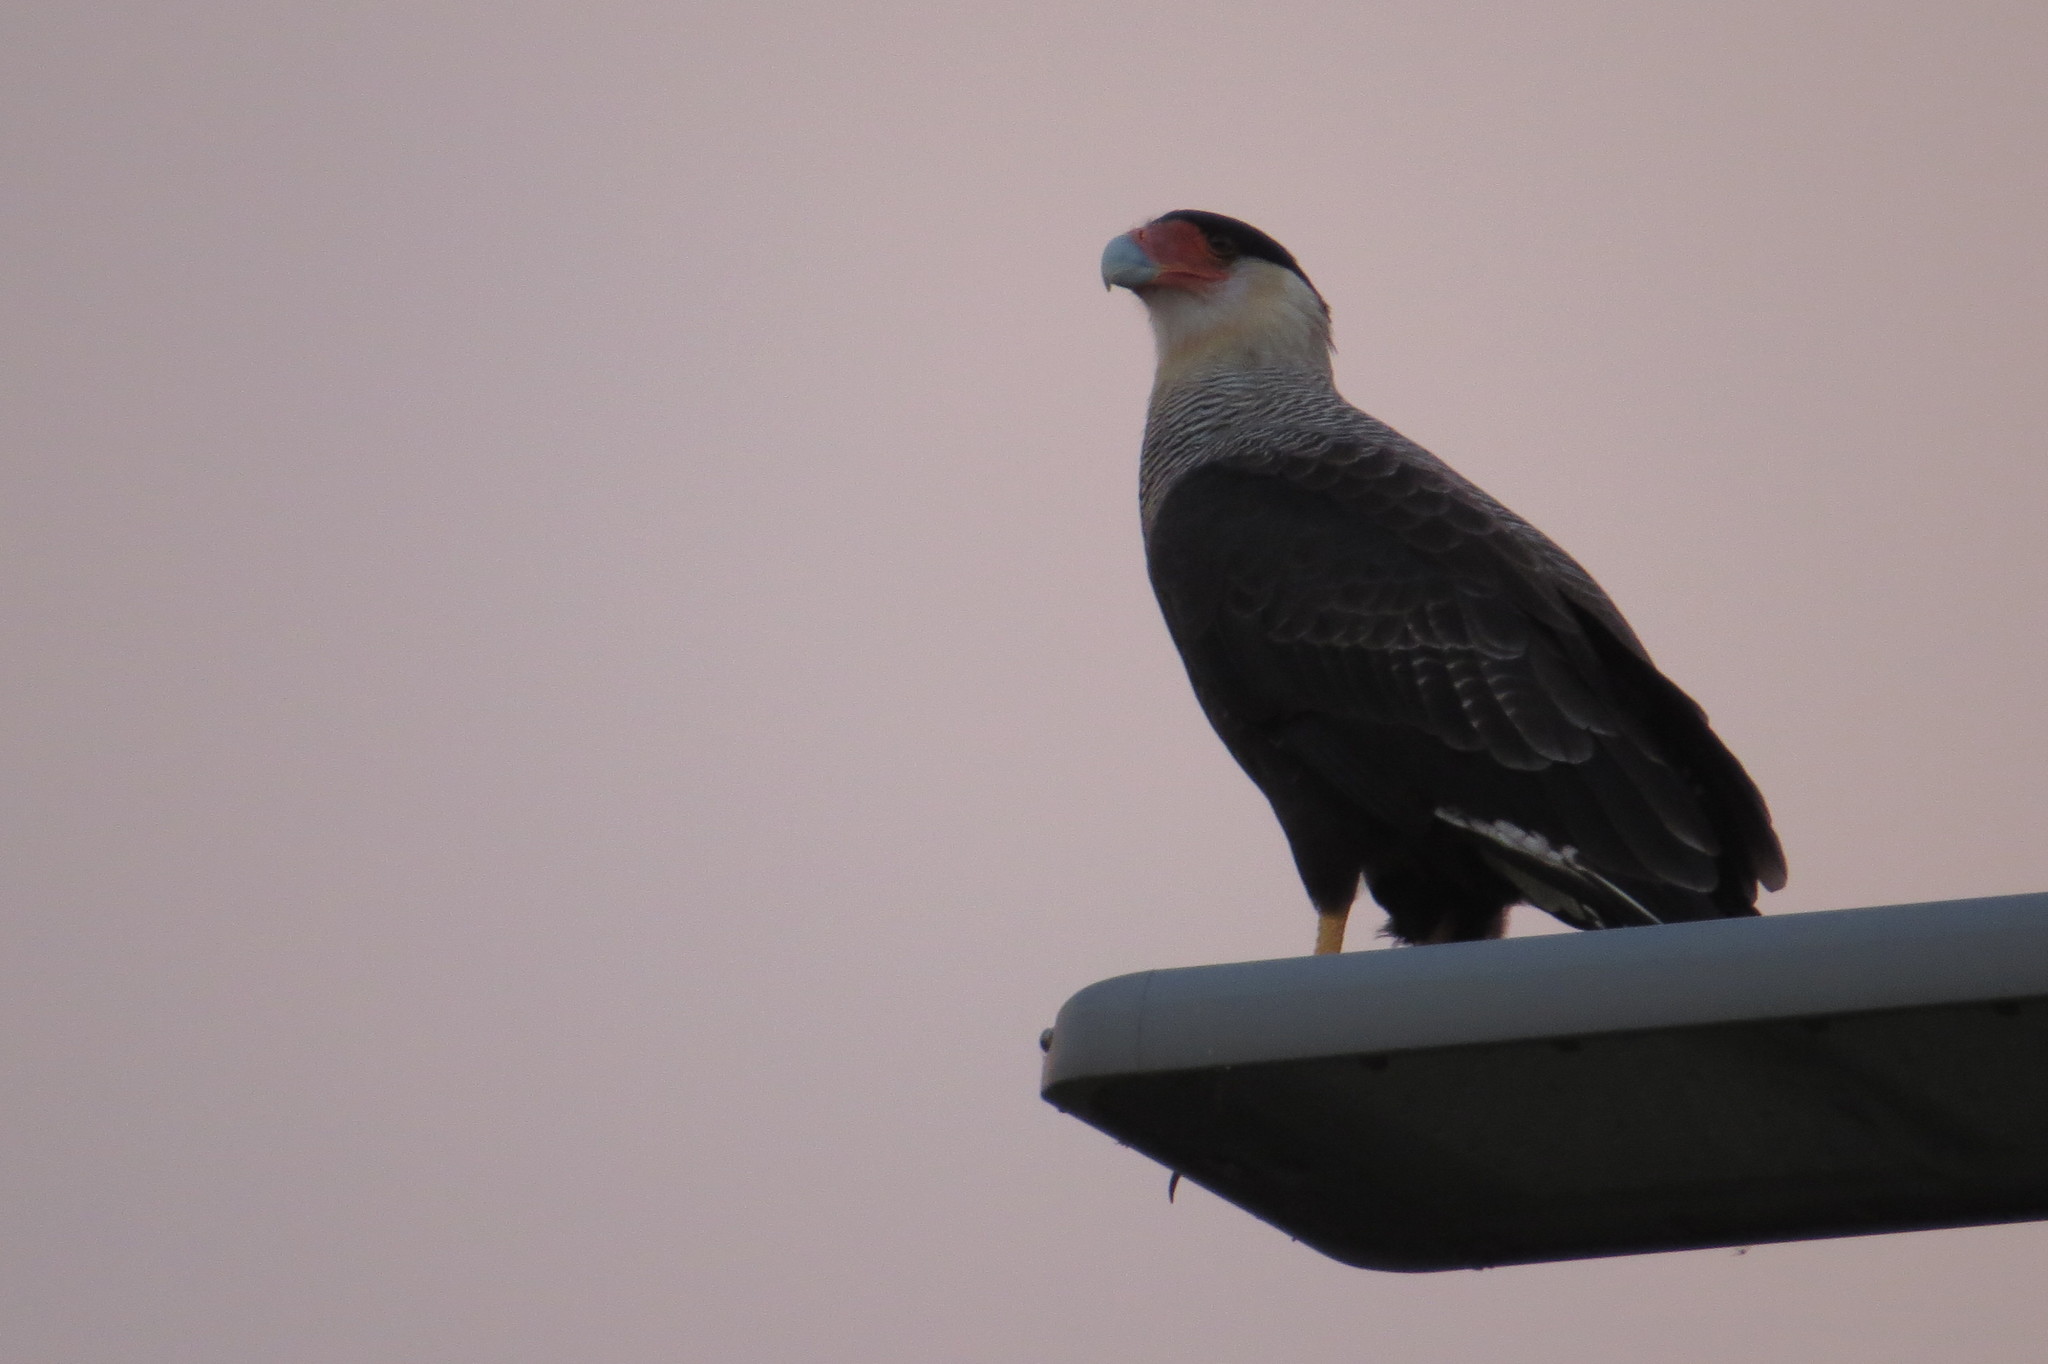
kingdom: Animalia
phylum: Chordata
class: Aves
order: Falconiformes
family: Falconidae
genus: Caracara
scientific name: Caracara plancus
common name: Southern caracara
